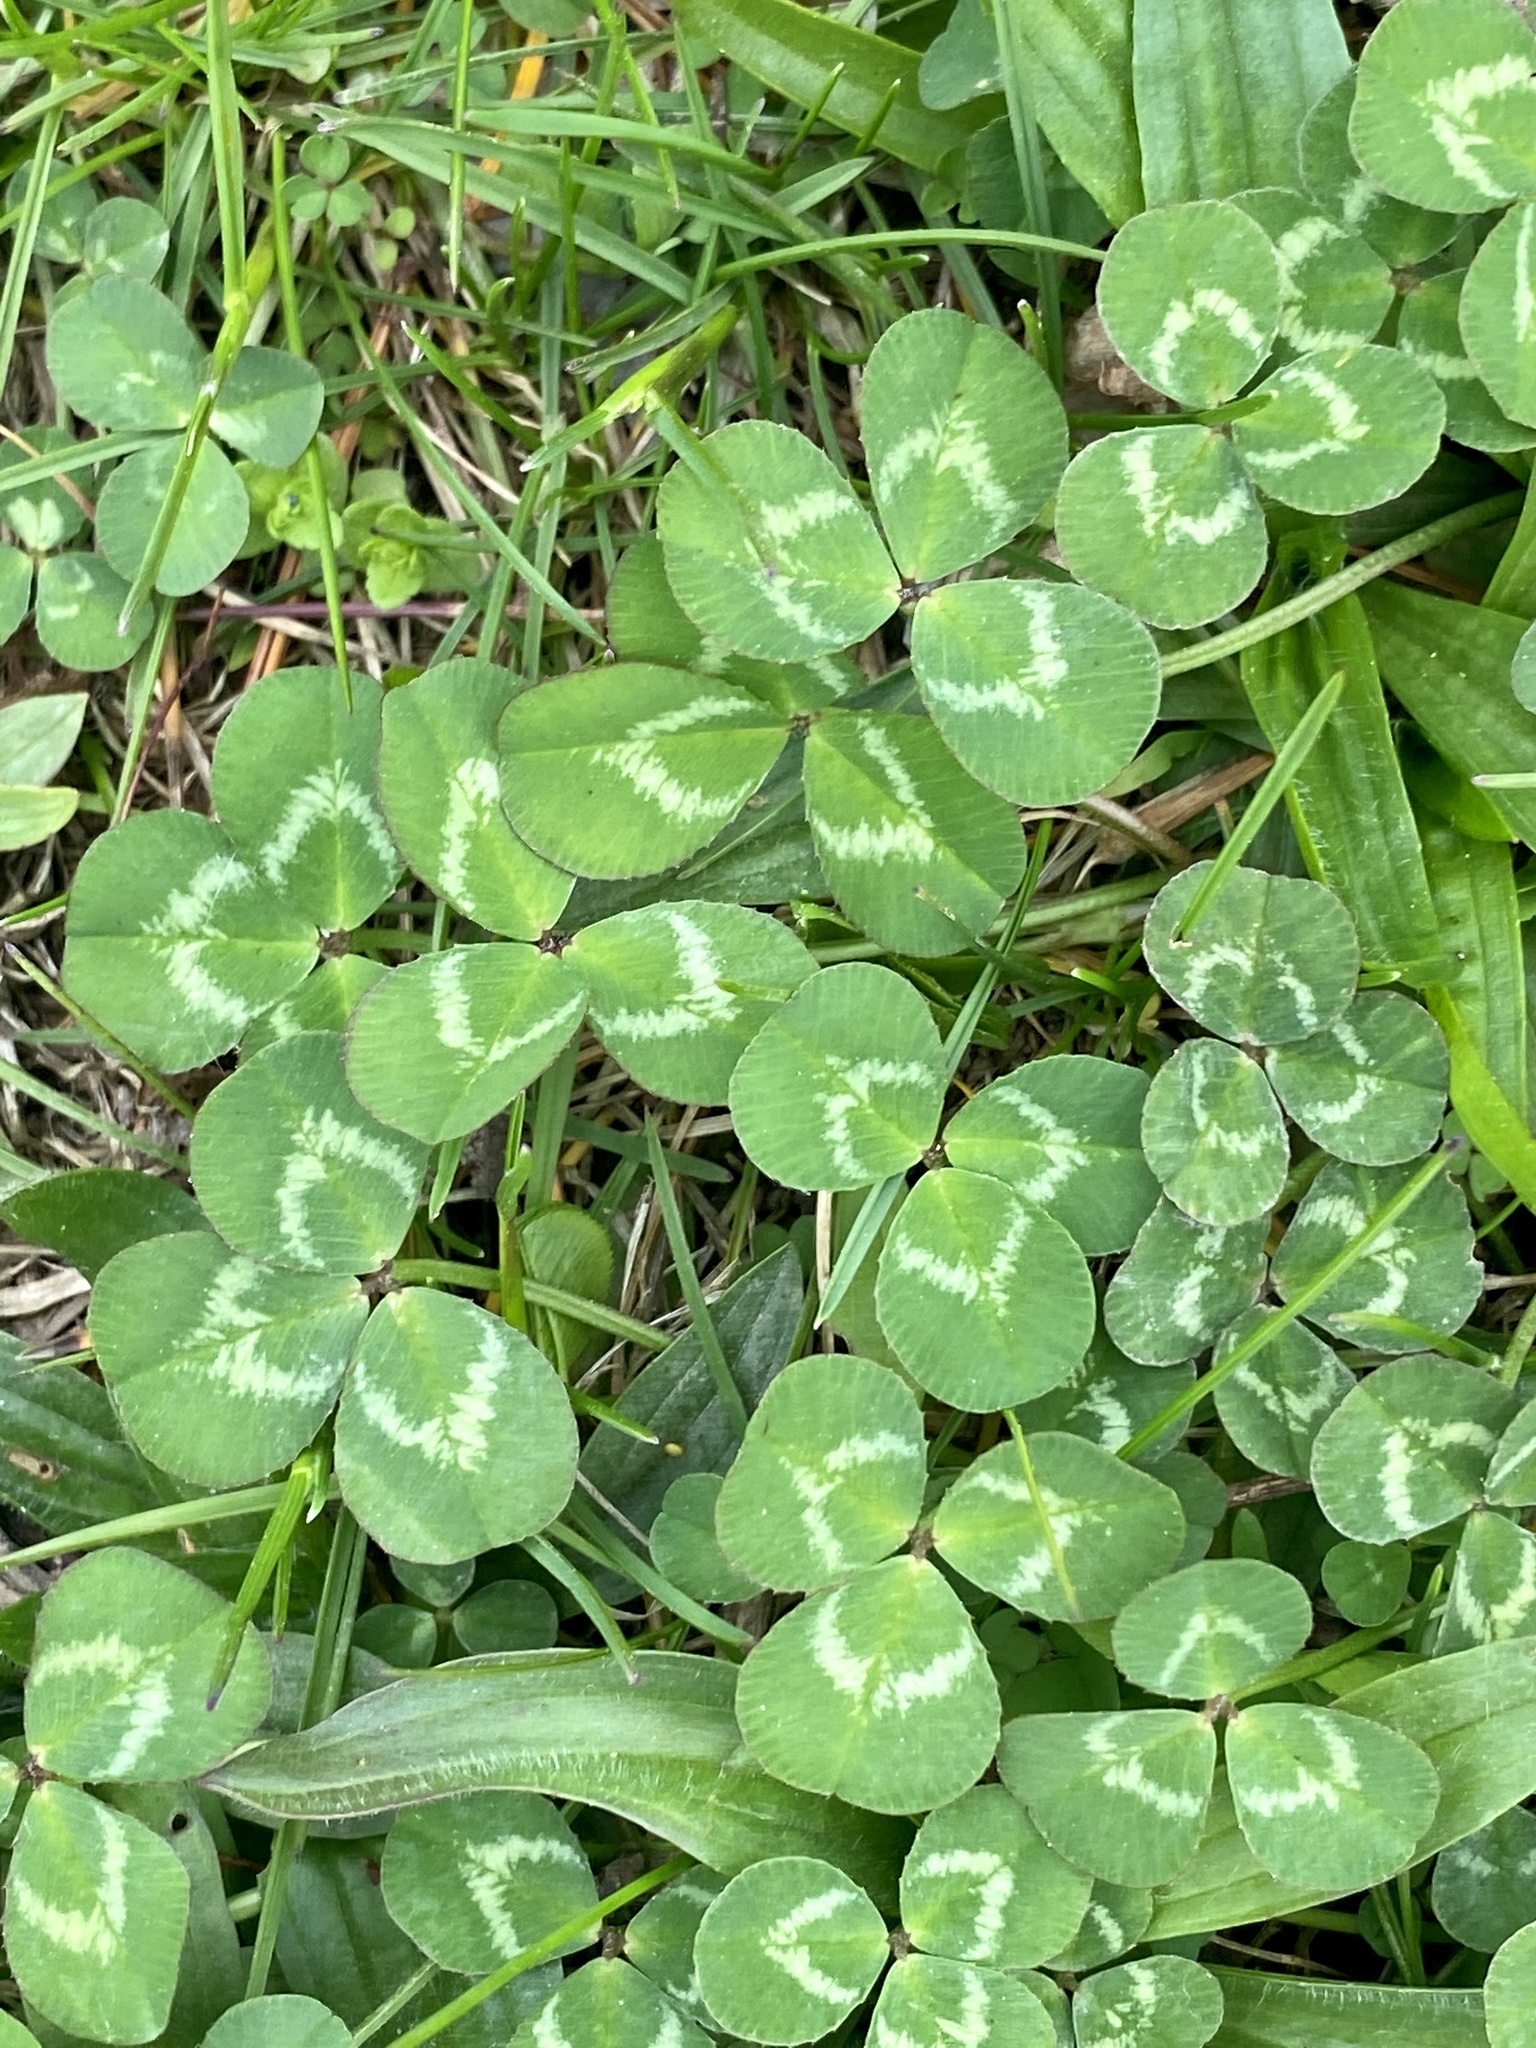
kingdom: Plantae
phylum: Tracheophyta
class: Magnoliopsida
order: Fabales
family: Fabaceae
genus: Trifolium
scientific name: Trifolium repens
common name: White clover
